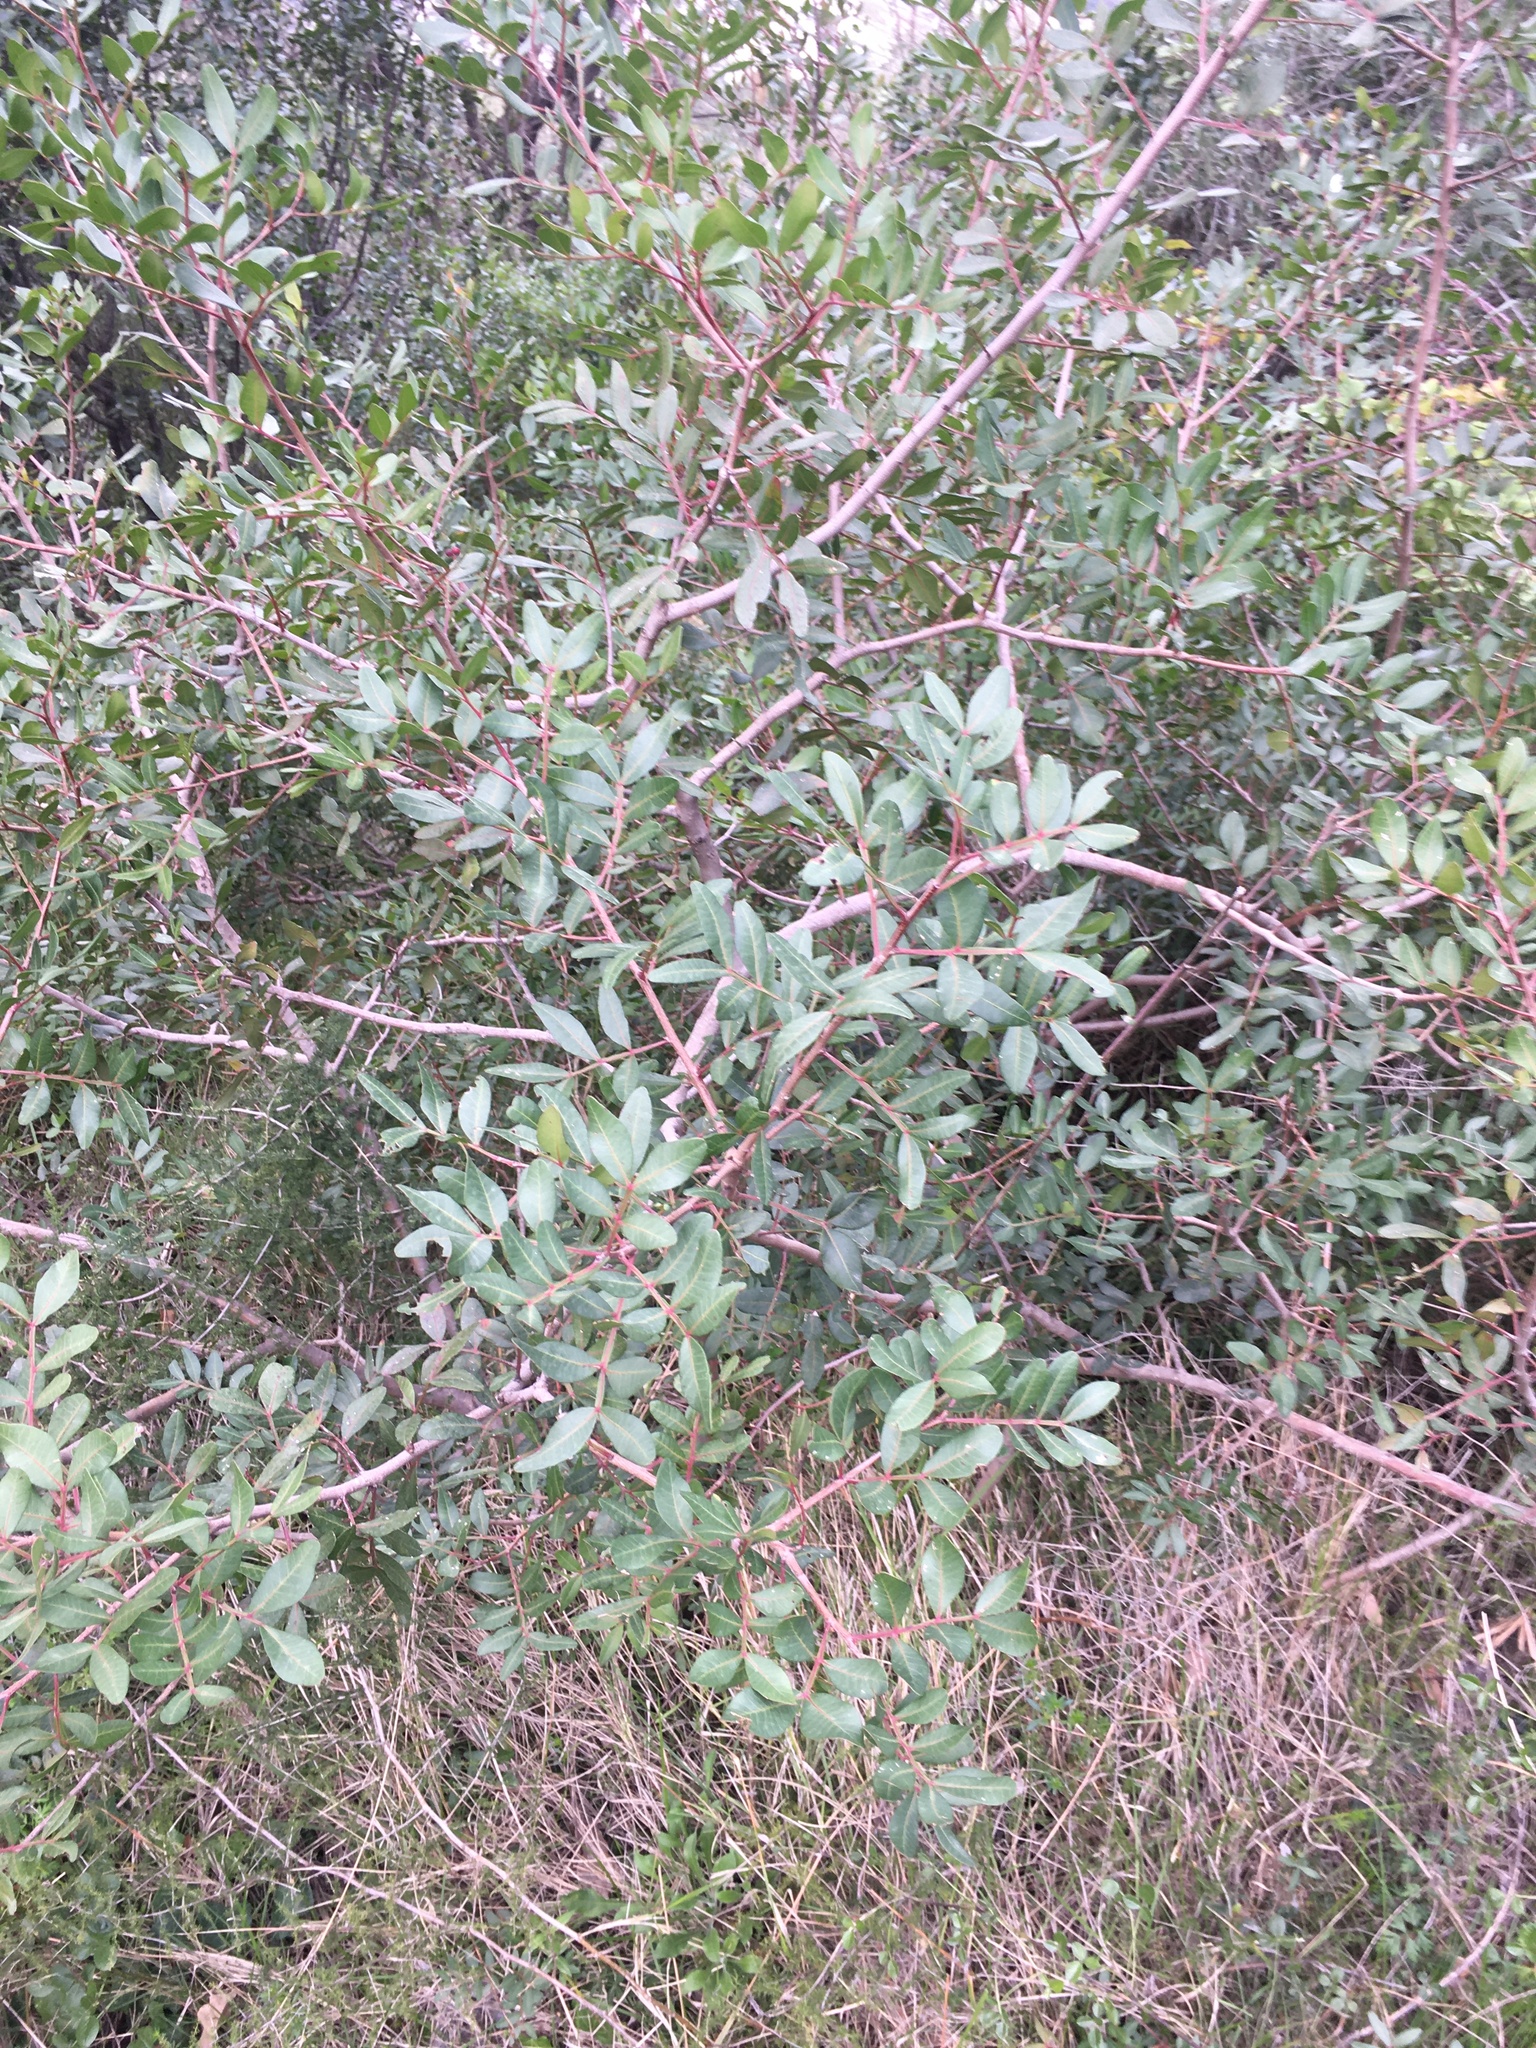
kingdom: Plantae
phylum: Tracheophyta
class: Magnoliopsida
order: Sapindales
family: Anacardiaceae
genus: Pistacia
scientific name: Pistacia lentiscus
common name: Lentisk
